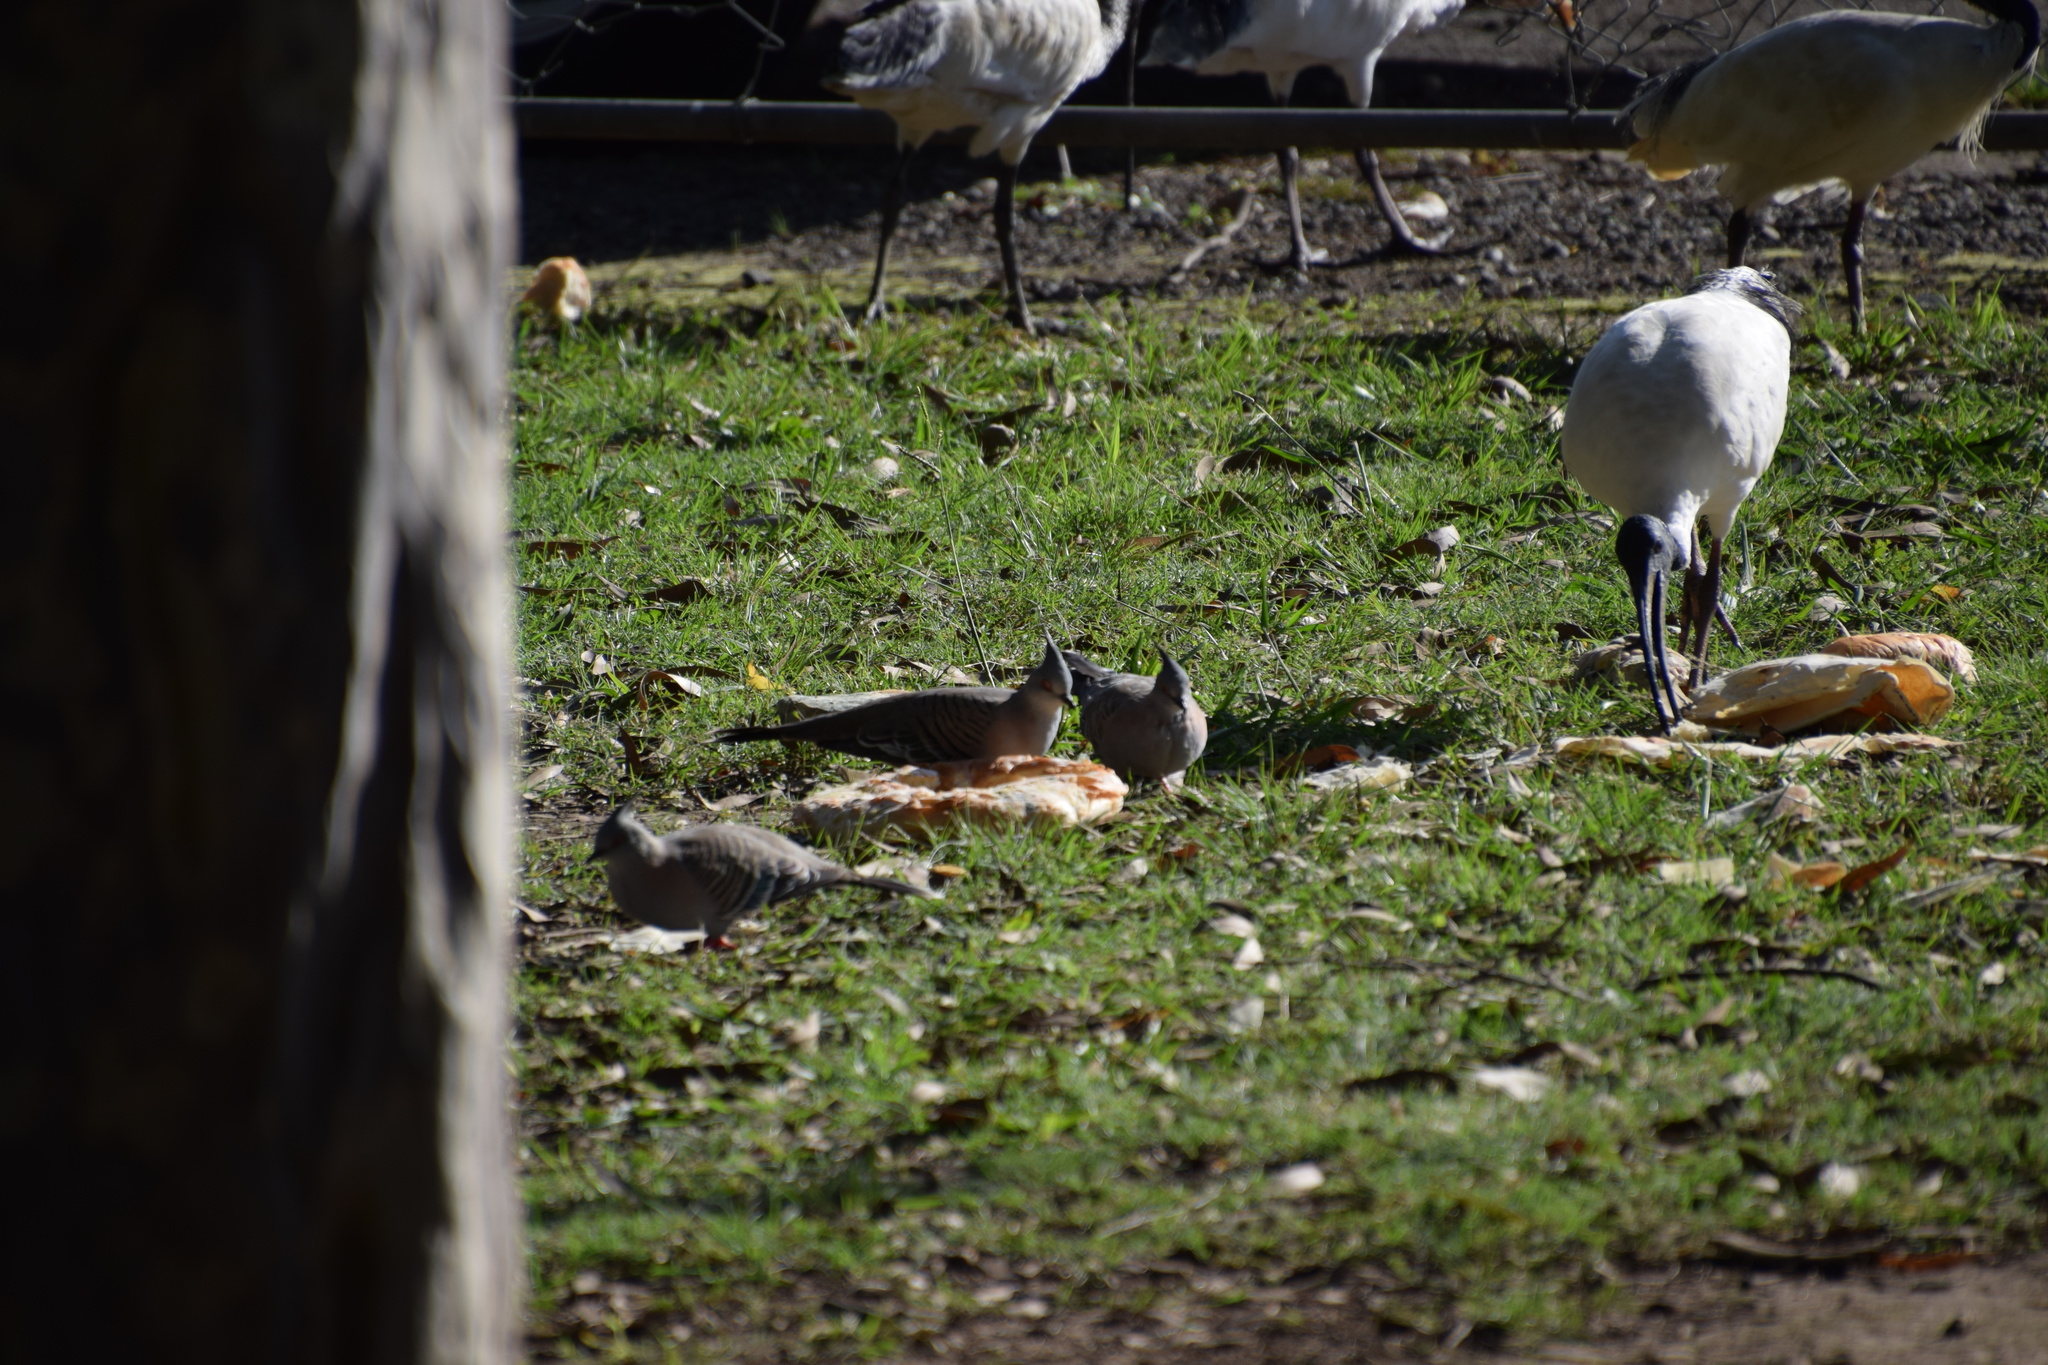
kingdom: Animalia
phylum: Chordata
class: Aves
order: Columbiformes
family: Columbidae
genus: Ocyphaps
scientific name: Ocyphaps lophotes
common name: Crested pigeon
